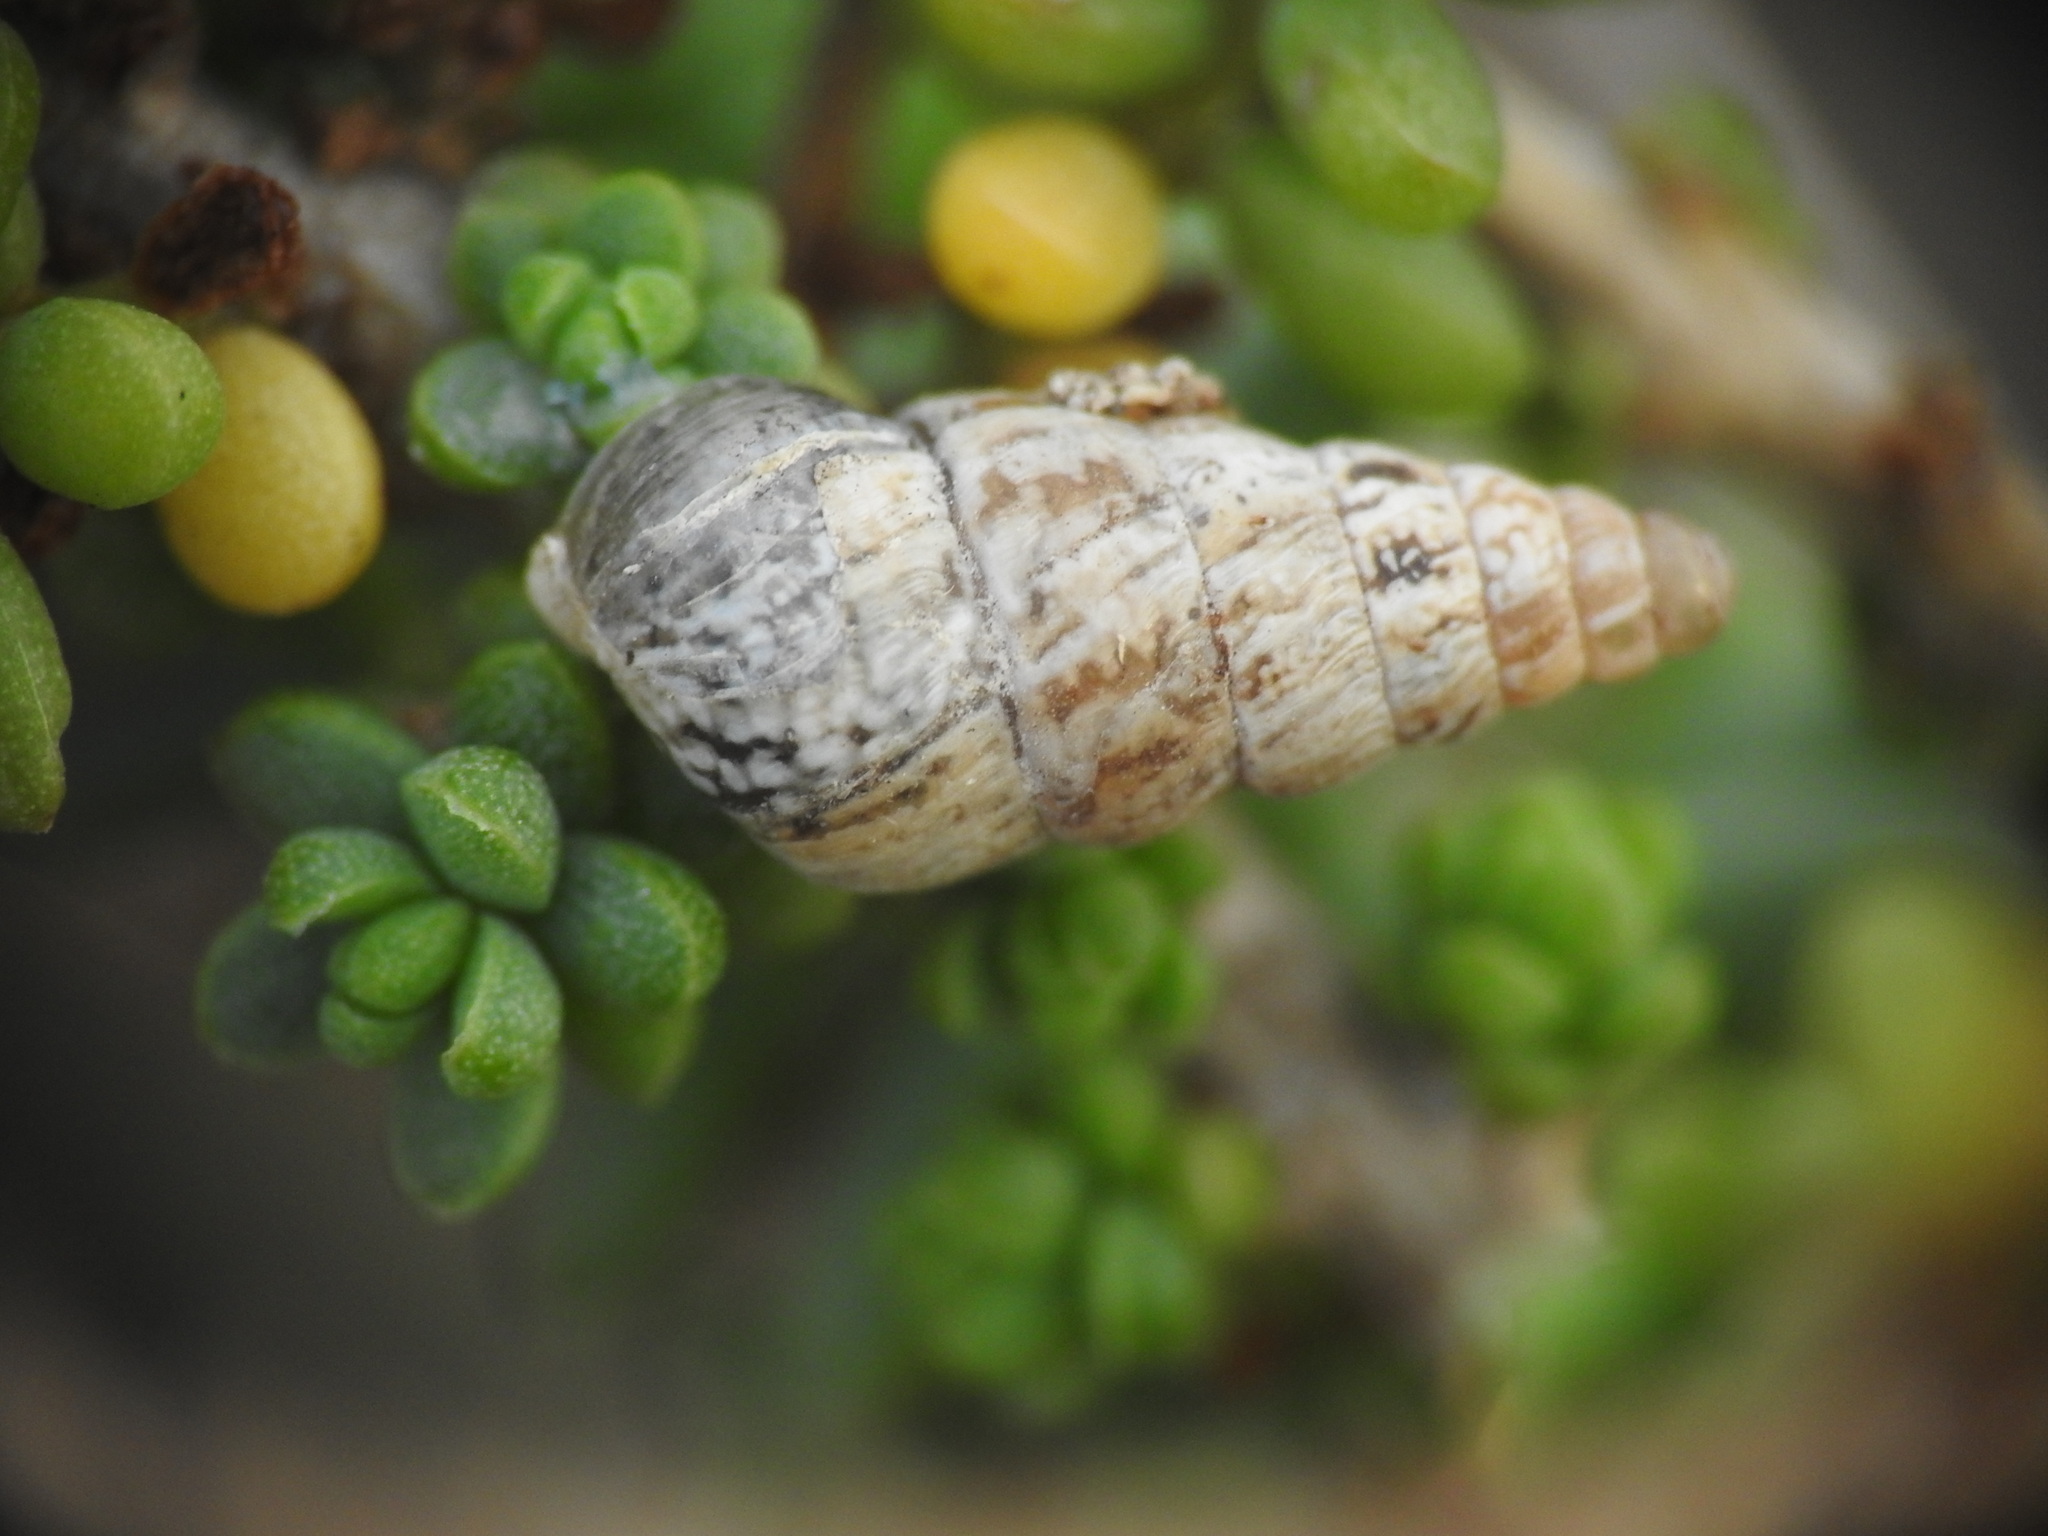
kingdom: Animalia
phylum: Mollusca
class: Gastropoda
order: Stylommatophora
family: Geomitridae
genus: Cochlicella
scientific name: Cochlicella acuta
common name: Pointed snail
